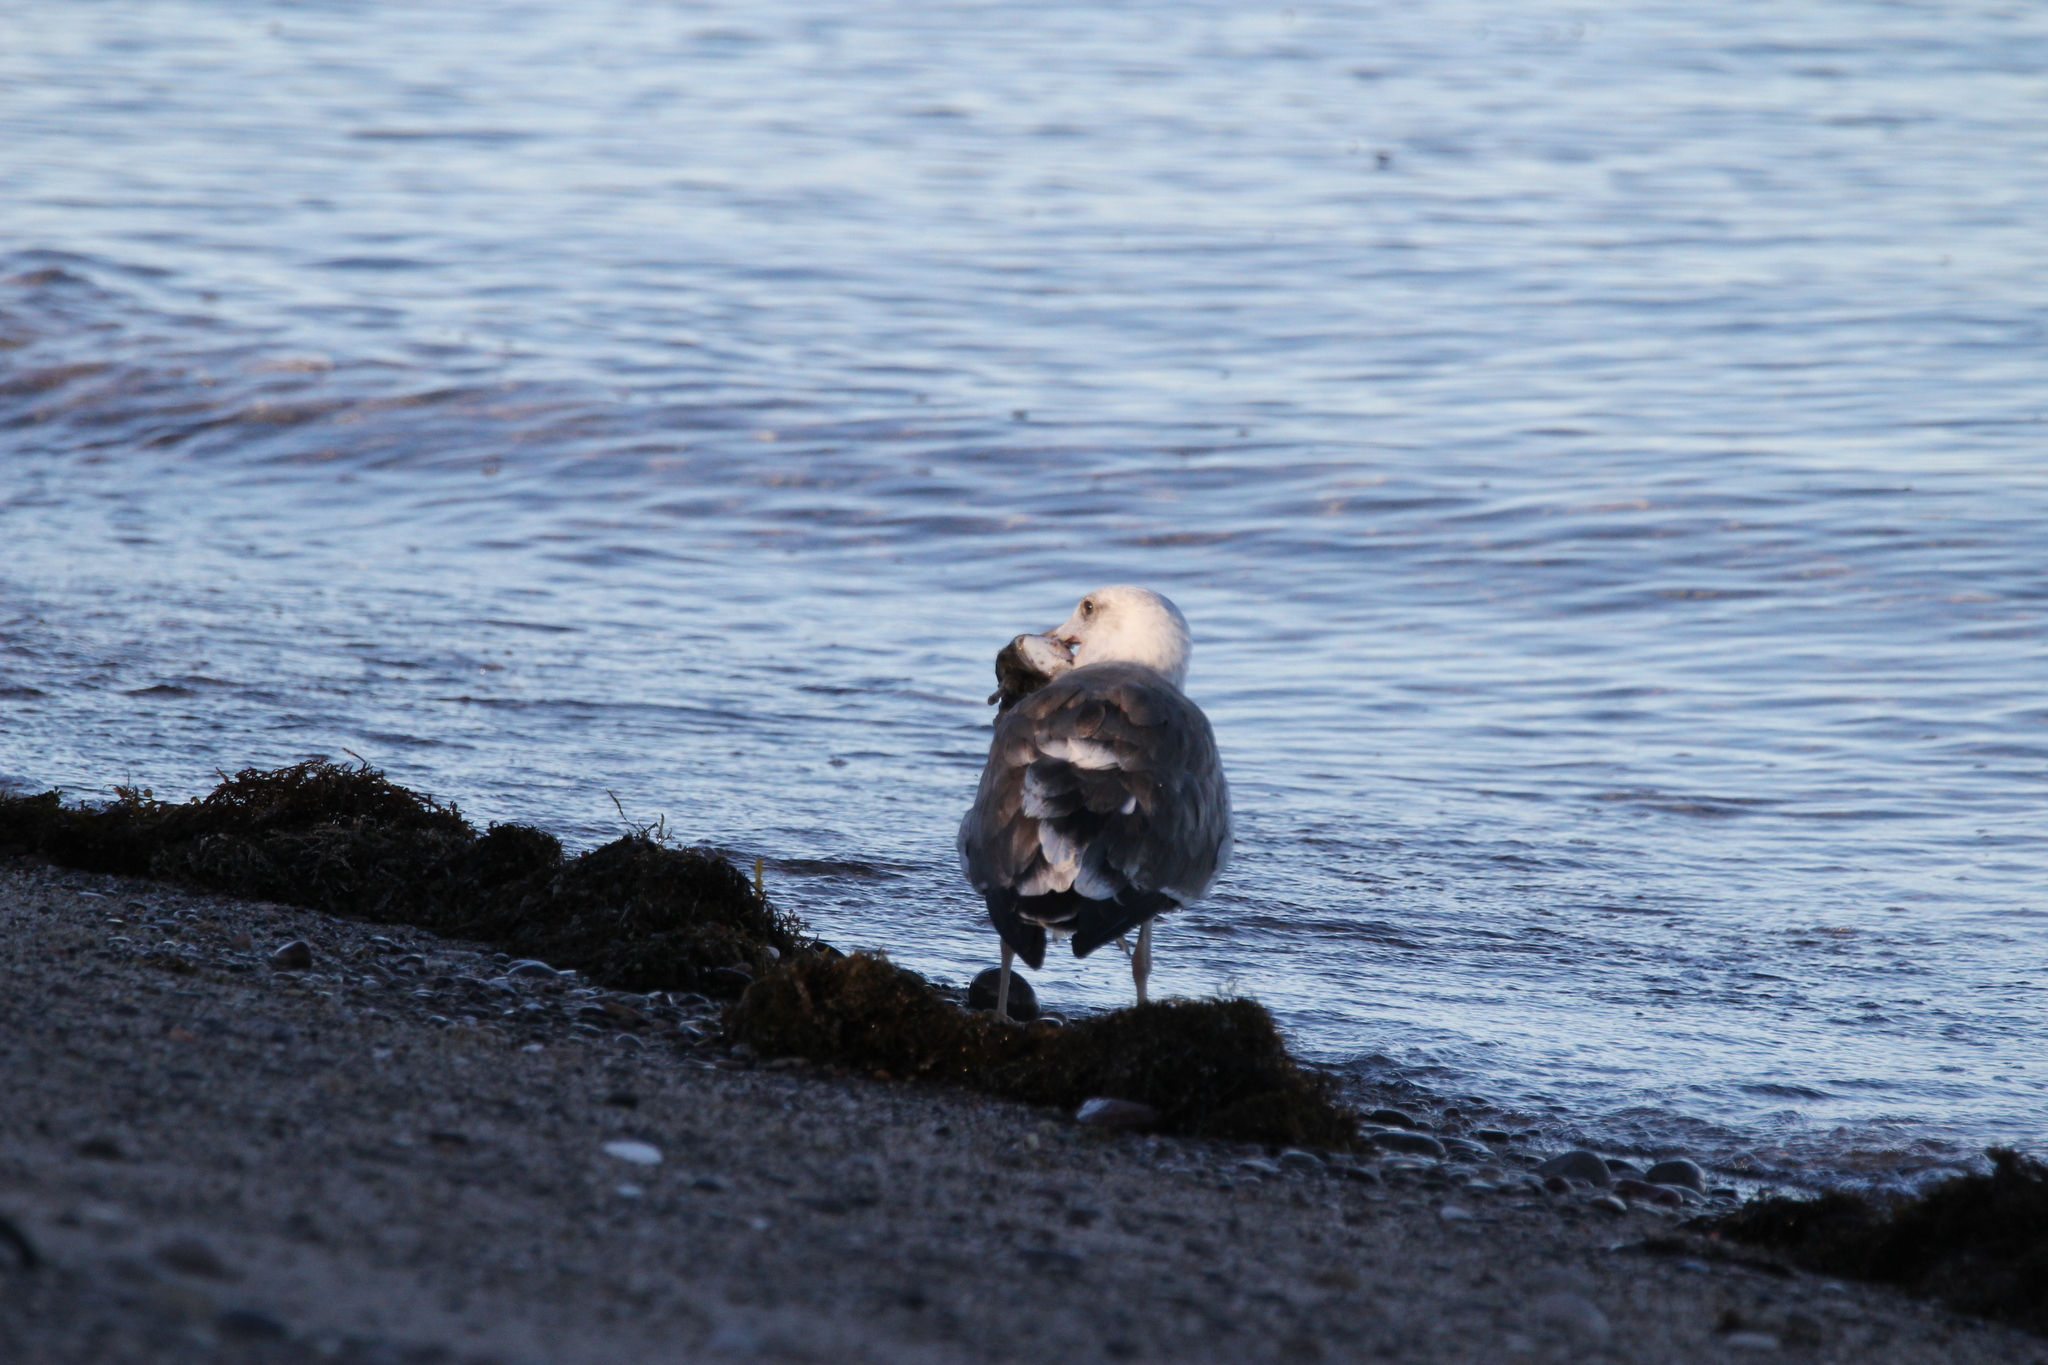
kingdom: Animalia
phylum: Chordata
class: Aves
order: Charadriiformes
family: Laridae
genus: Larus
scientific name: Larus livens
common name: Yellow-footed gull
